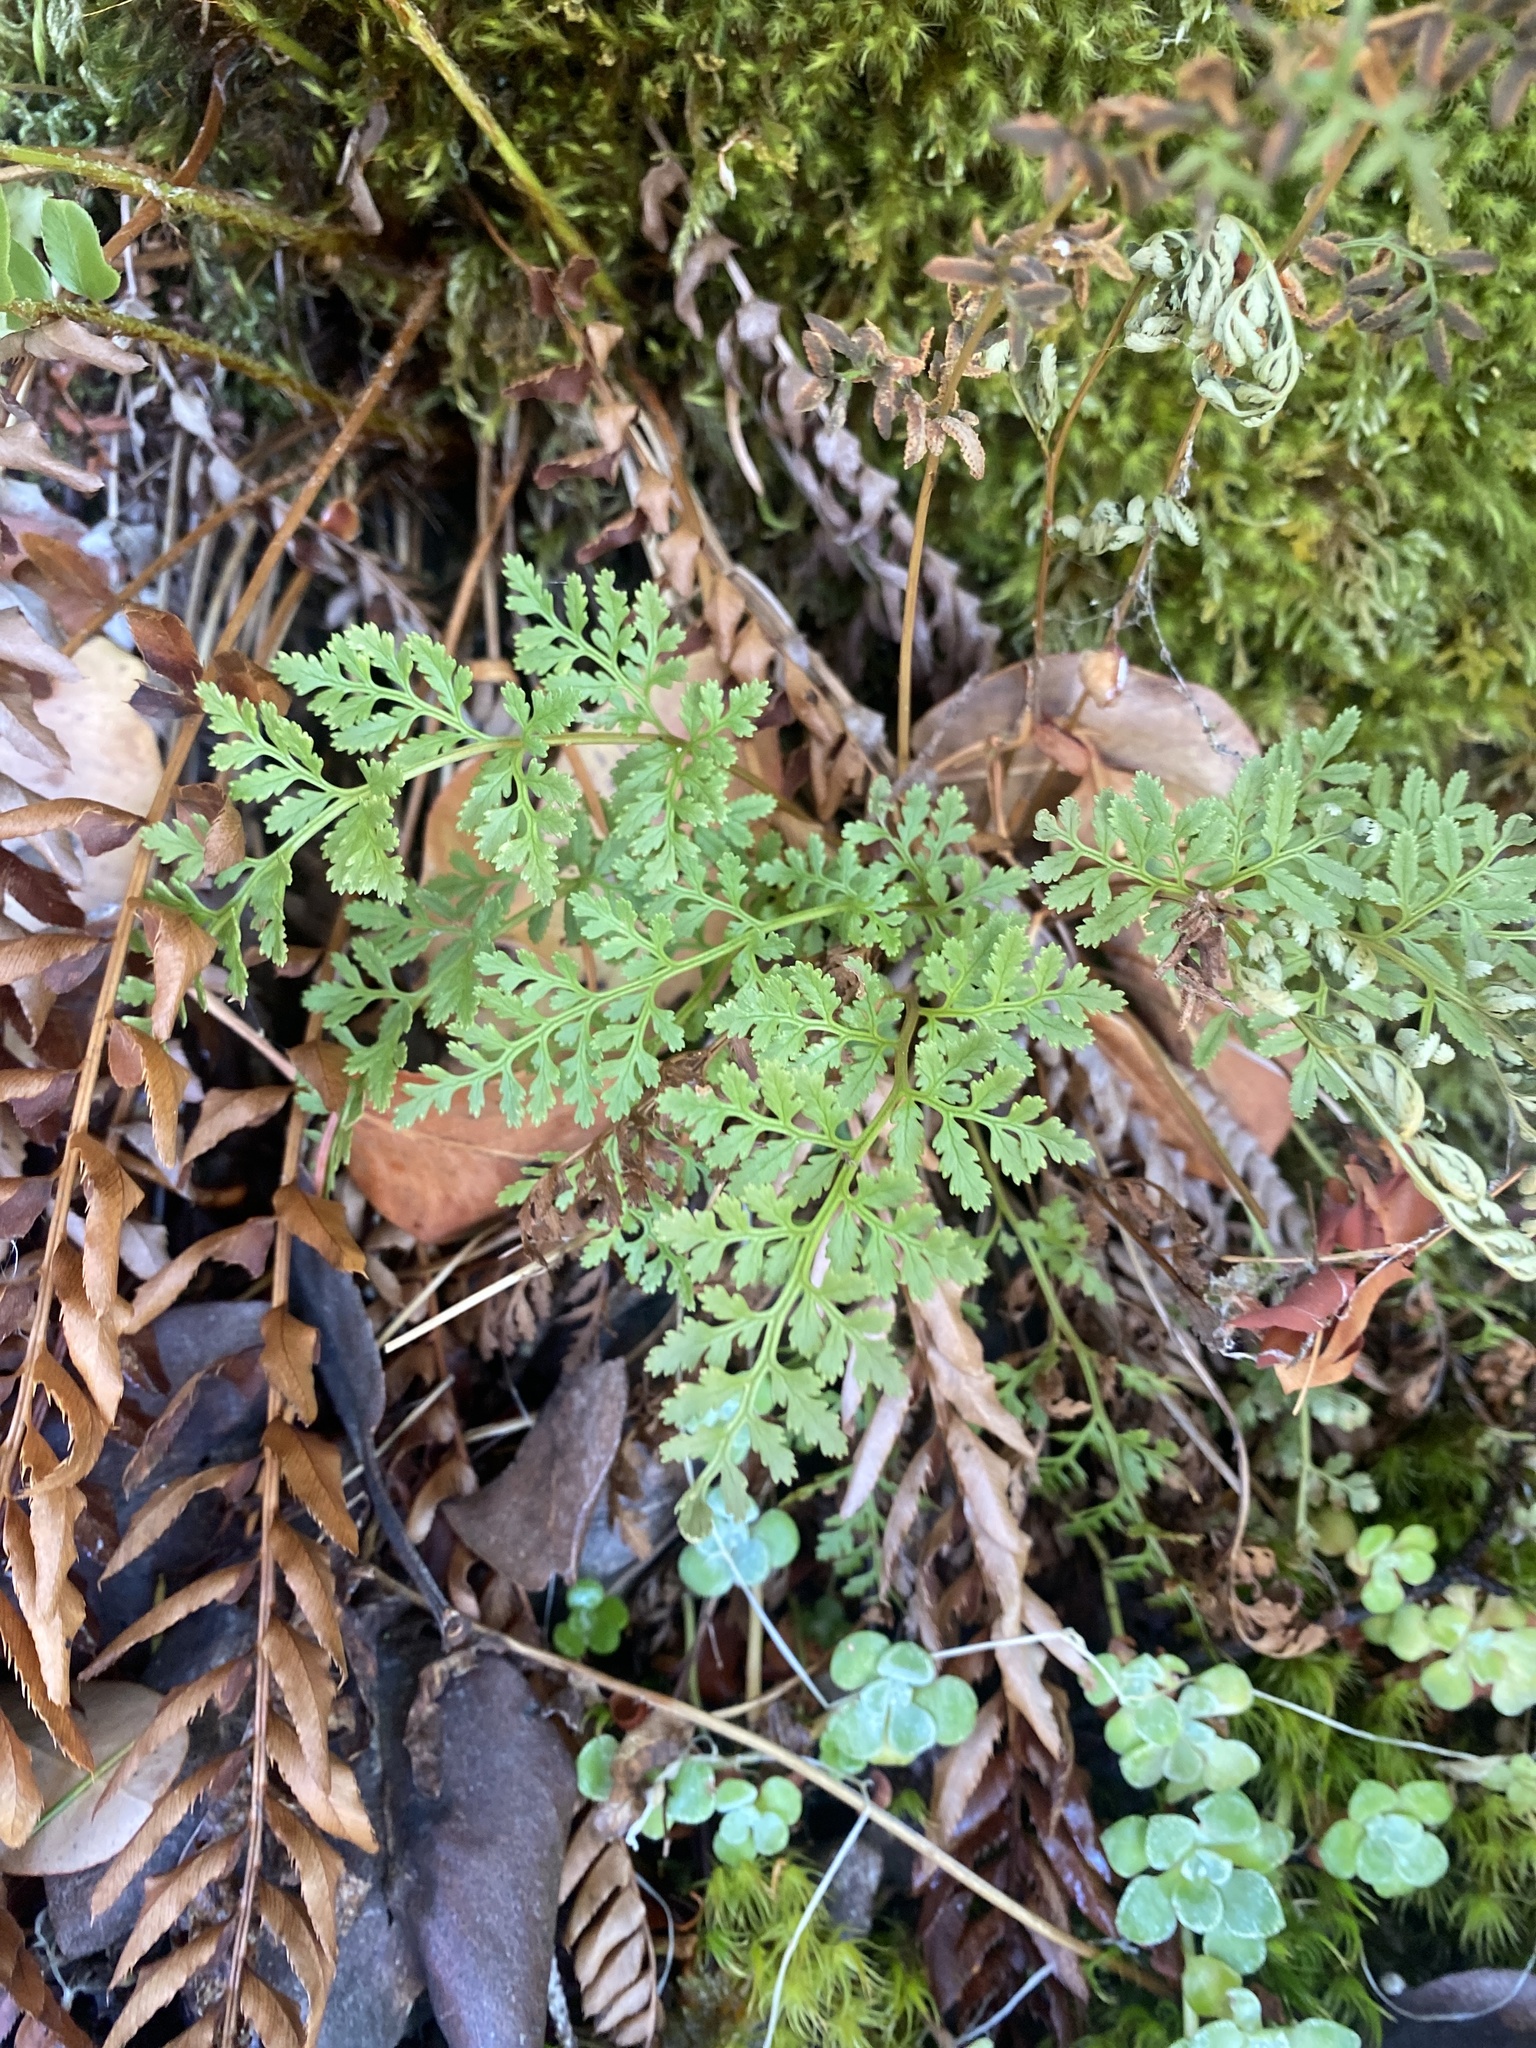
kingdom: Plantae
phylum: Tracheophyta
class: Polypodiopsida
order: Polypodiales
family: Pteridaceae
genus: Cryptogramma
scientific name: Cryptogramma acrostichoides
